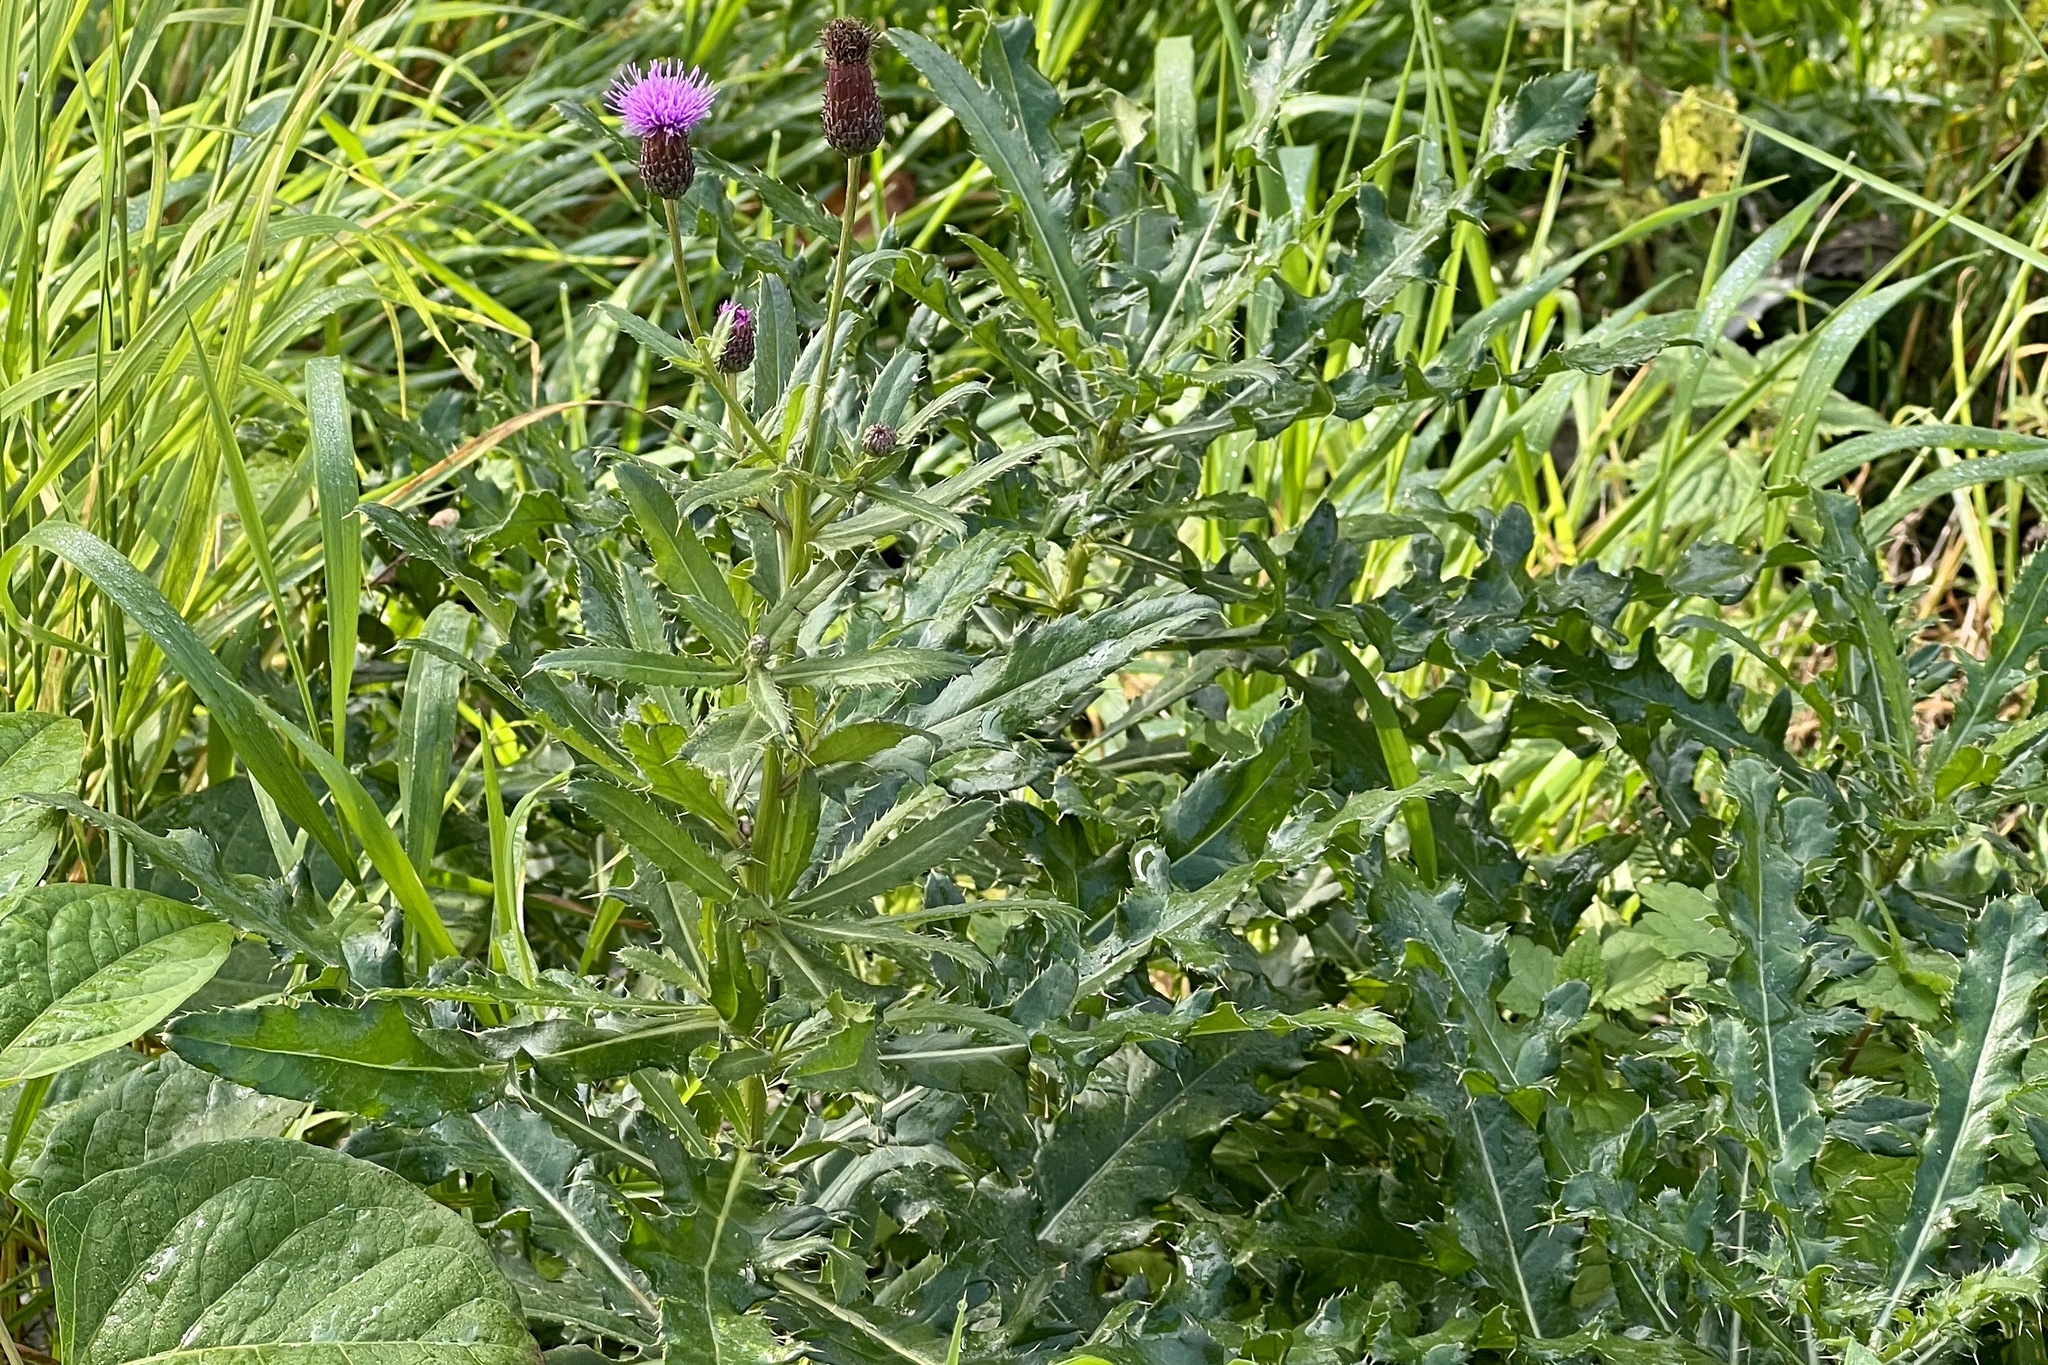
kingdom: Plantae
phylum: Tracheophyta
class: Magnoliopsida
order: Asterales
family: Asteraceae
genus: Cirsium
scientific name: Cirsium arvense
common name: Creeping thistle
